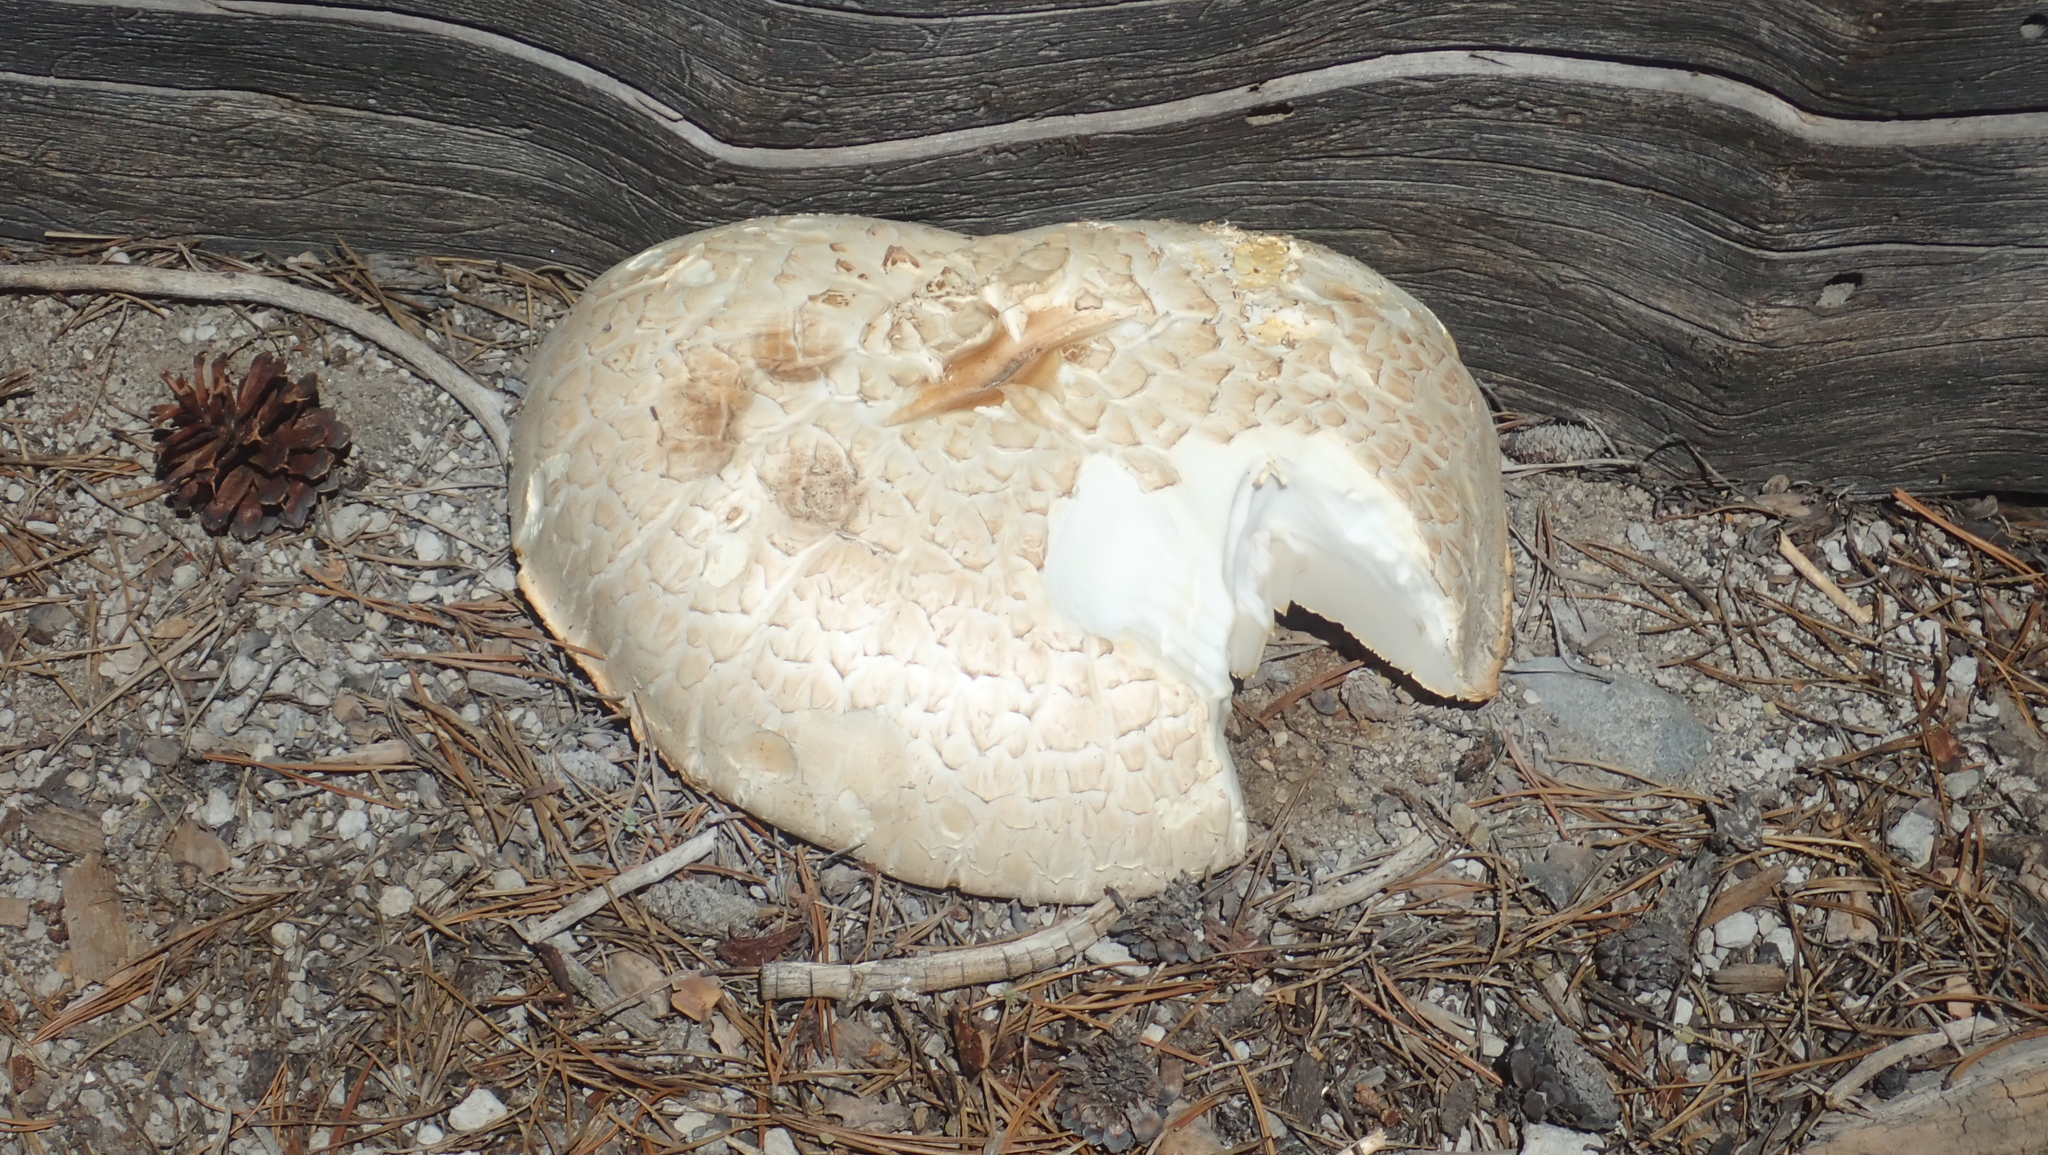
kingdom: Fungi
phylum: Basidiomycota
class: Agaricomycetes
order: Gloeophyllales
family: Gloeophyllaceae
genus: Neolentinus
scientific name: Neolentinus ponderosus
